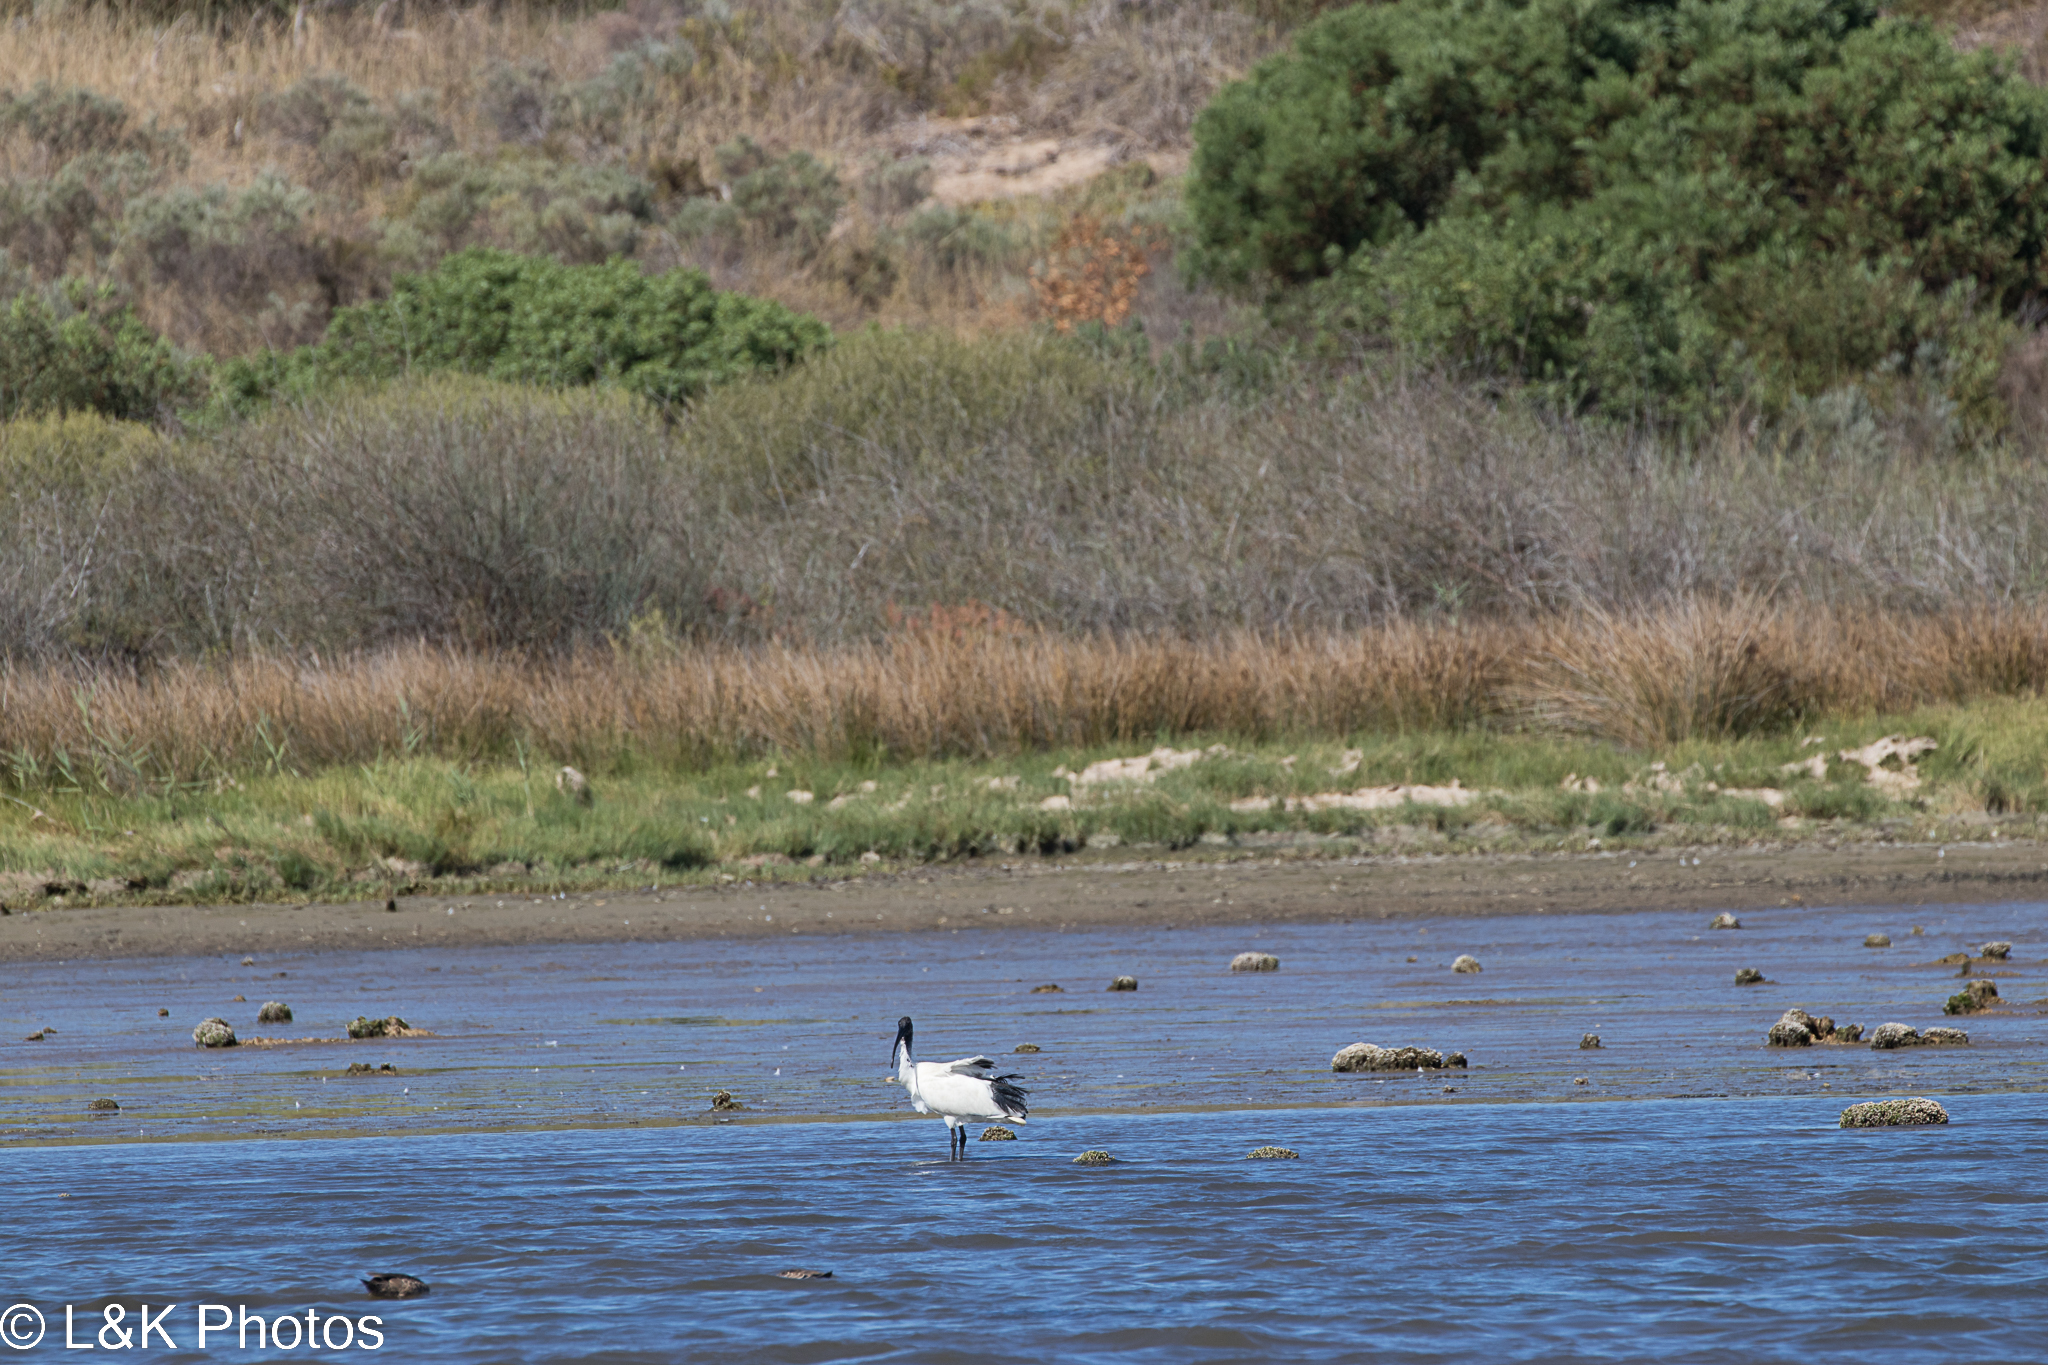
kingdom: Animalia
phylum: Chordata
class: Aves
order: Pelecaniformes
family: Threskiornithidae
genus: Threskiornis
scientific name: Threskiornis molucca
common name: Australian white ibis
